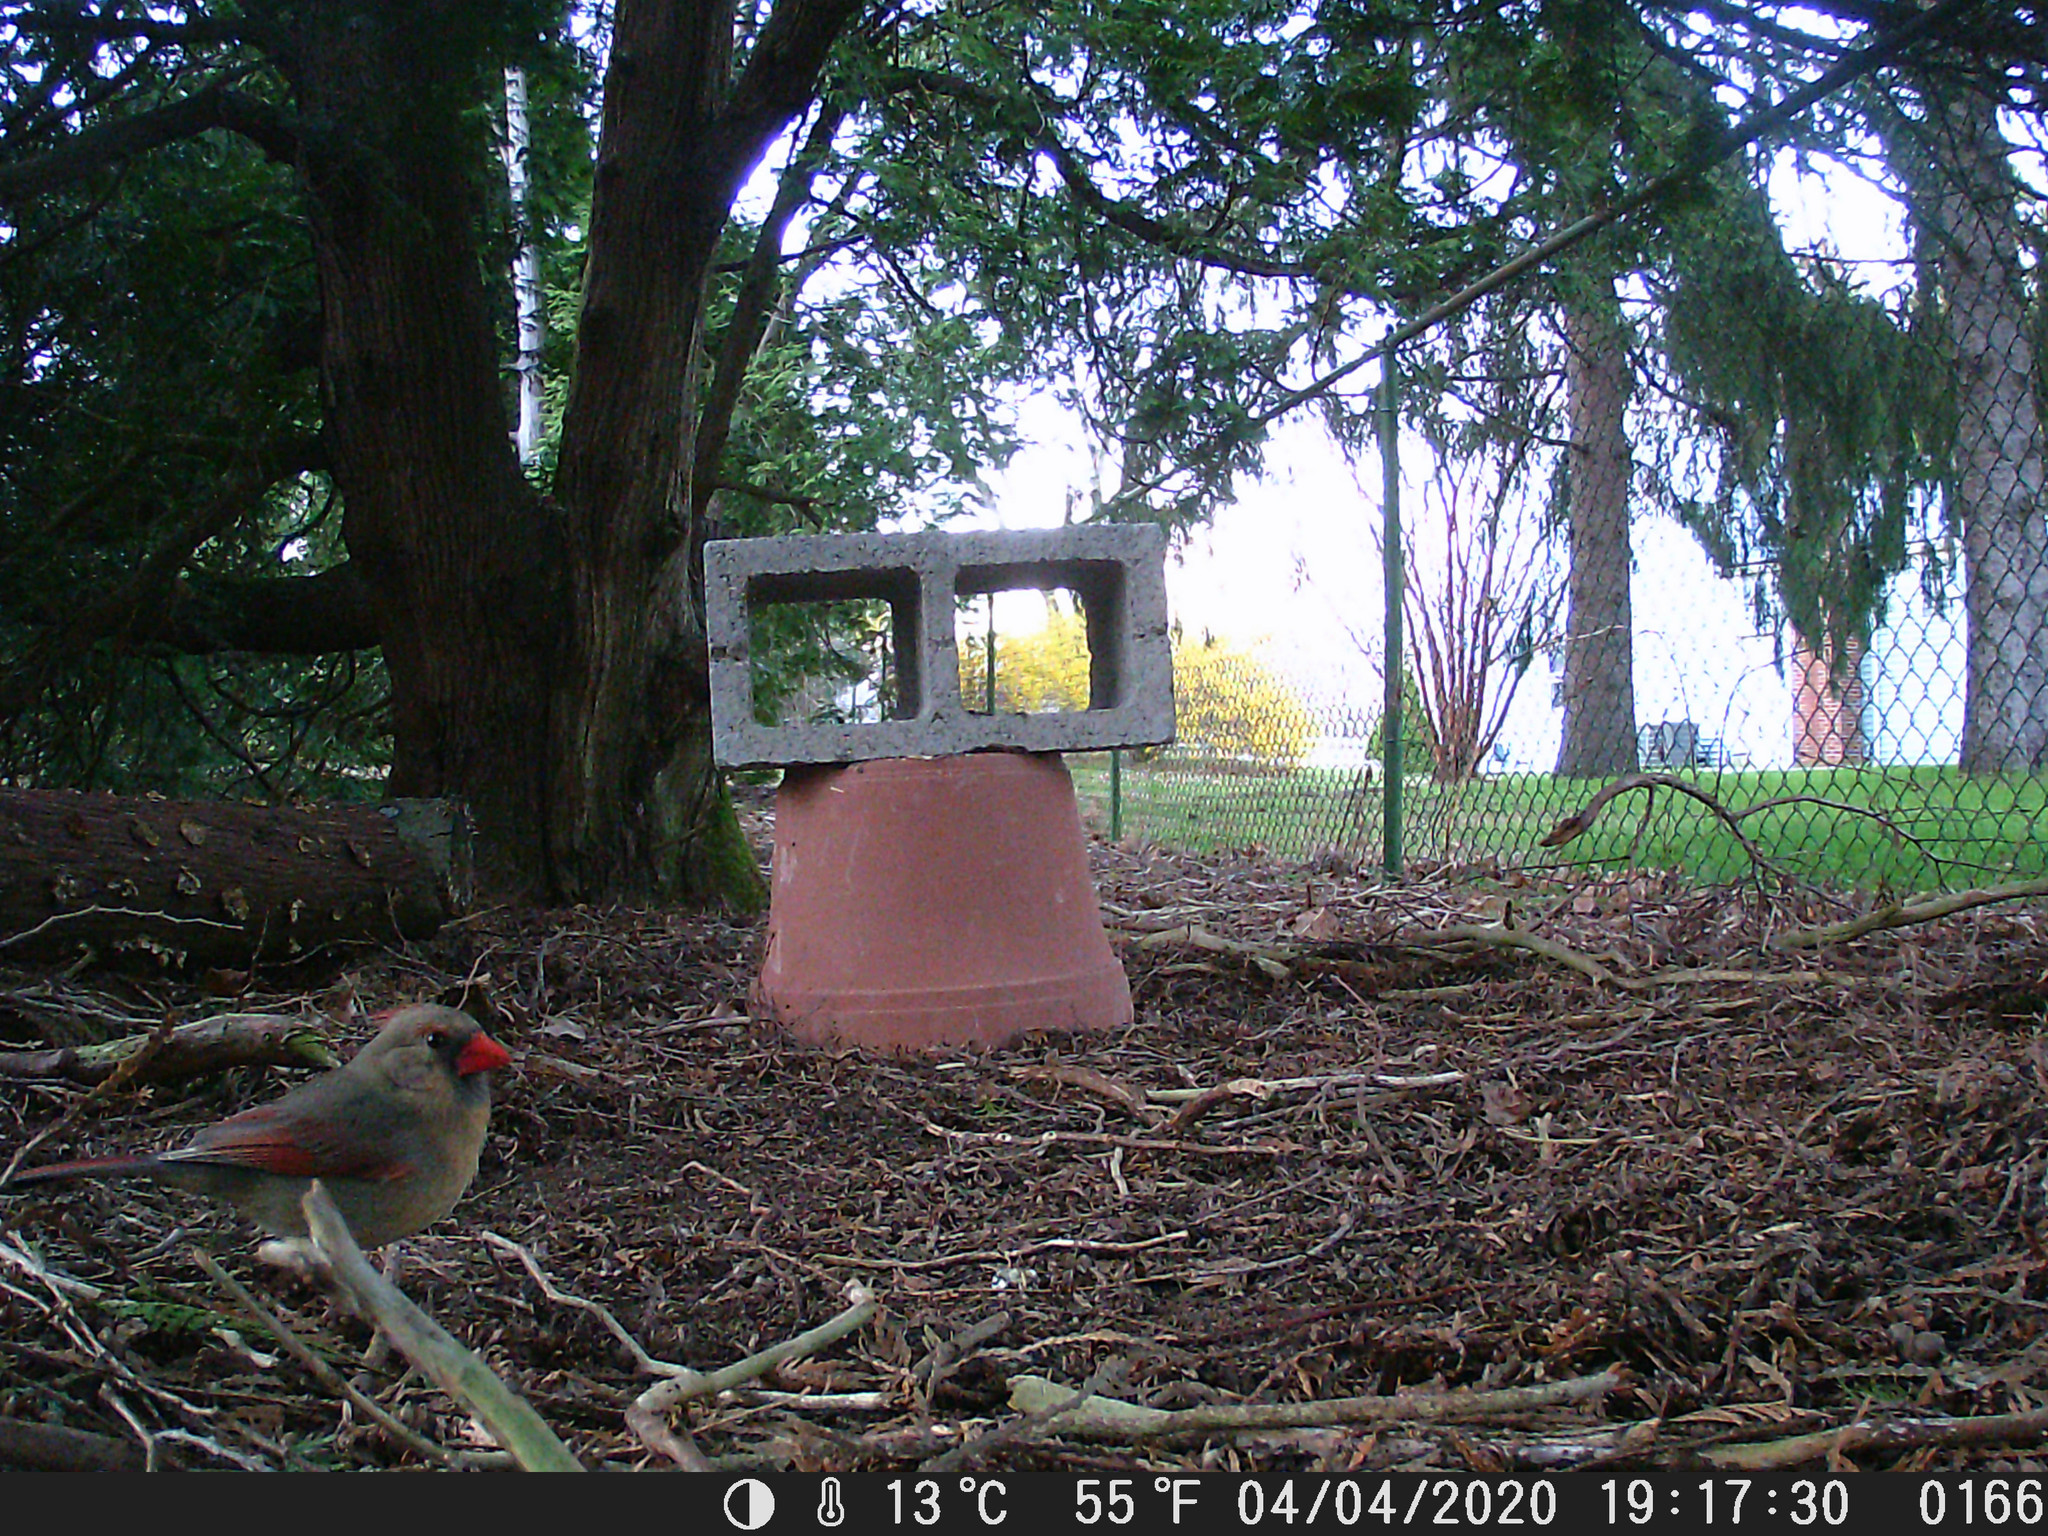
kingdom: Animalia
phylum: Chordata
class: Aves
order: Passeriformes
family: Cardinalidae
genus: Cardinalis
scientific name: Cardinalis cardinalis
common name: Northern cardinal
